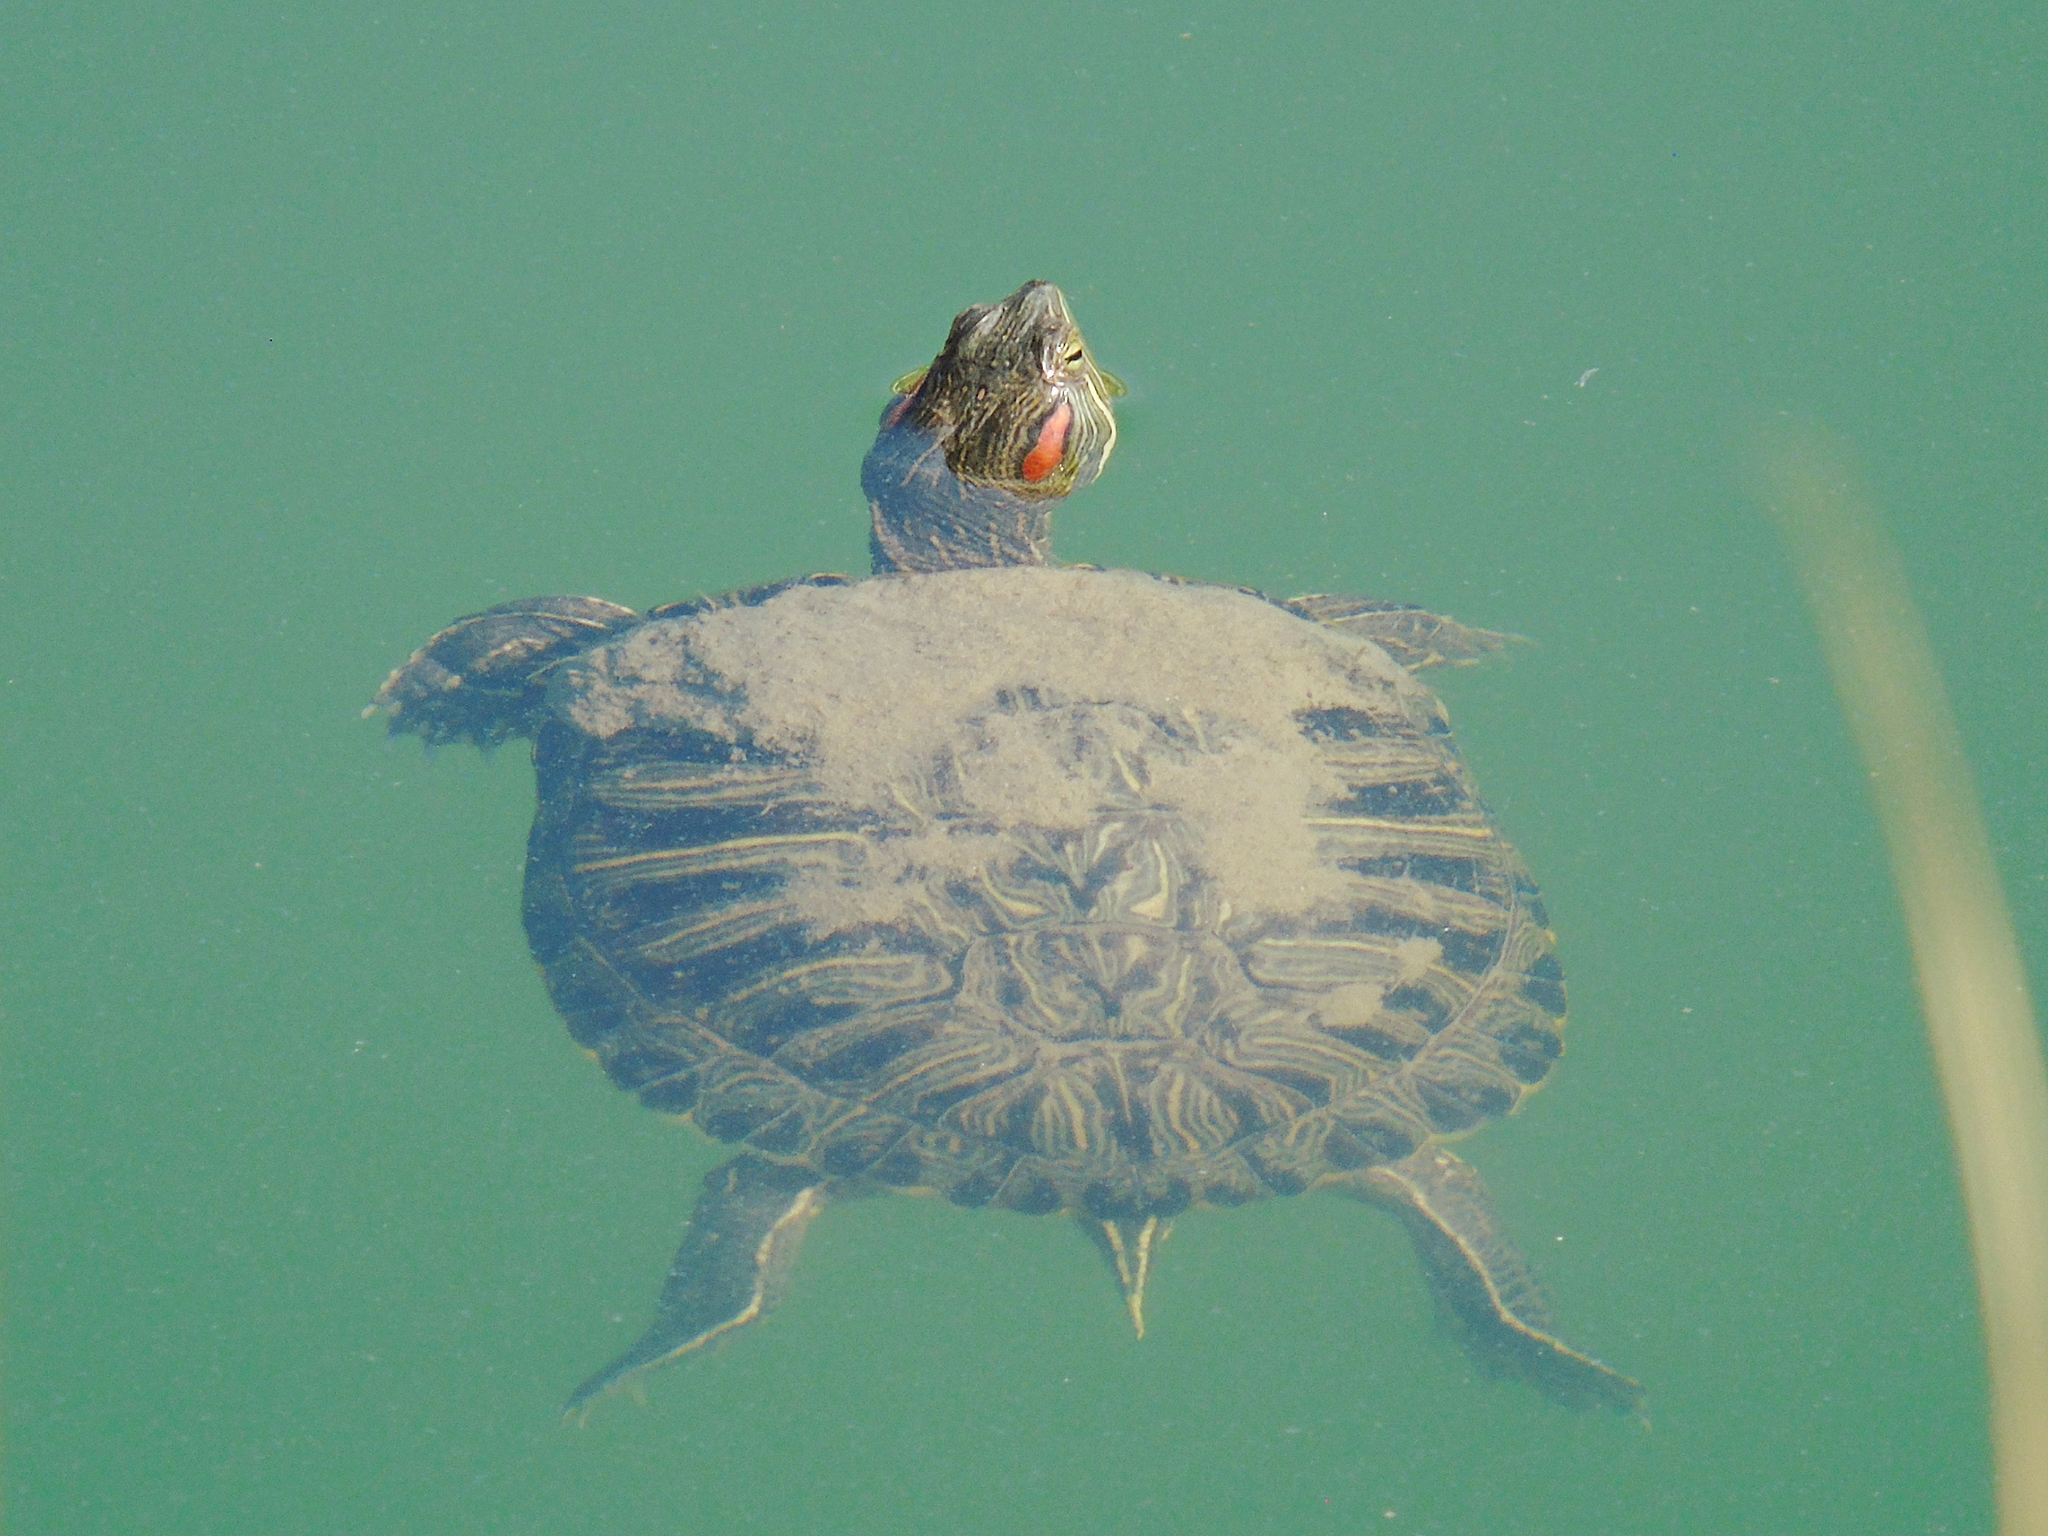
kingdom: Animalia
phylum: Chordata
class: Testudines
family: Emydidae
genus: Trachemys
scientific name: Trachemys scripta
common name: Slider
